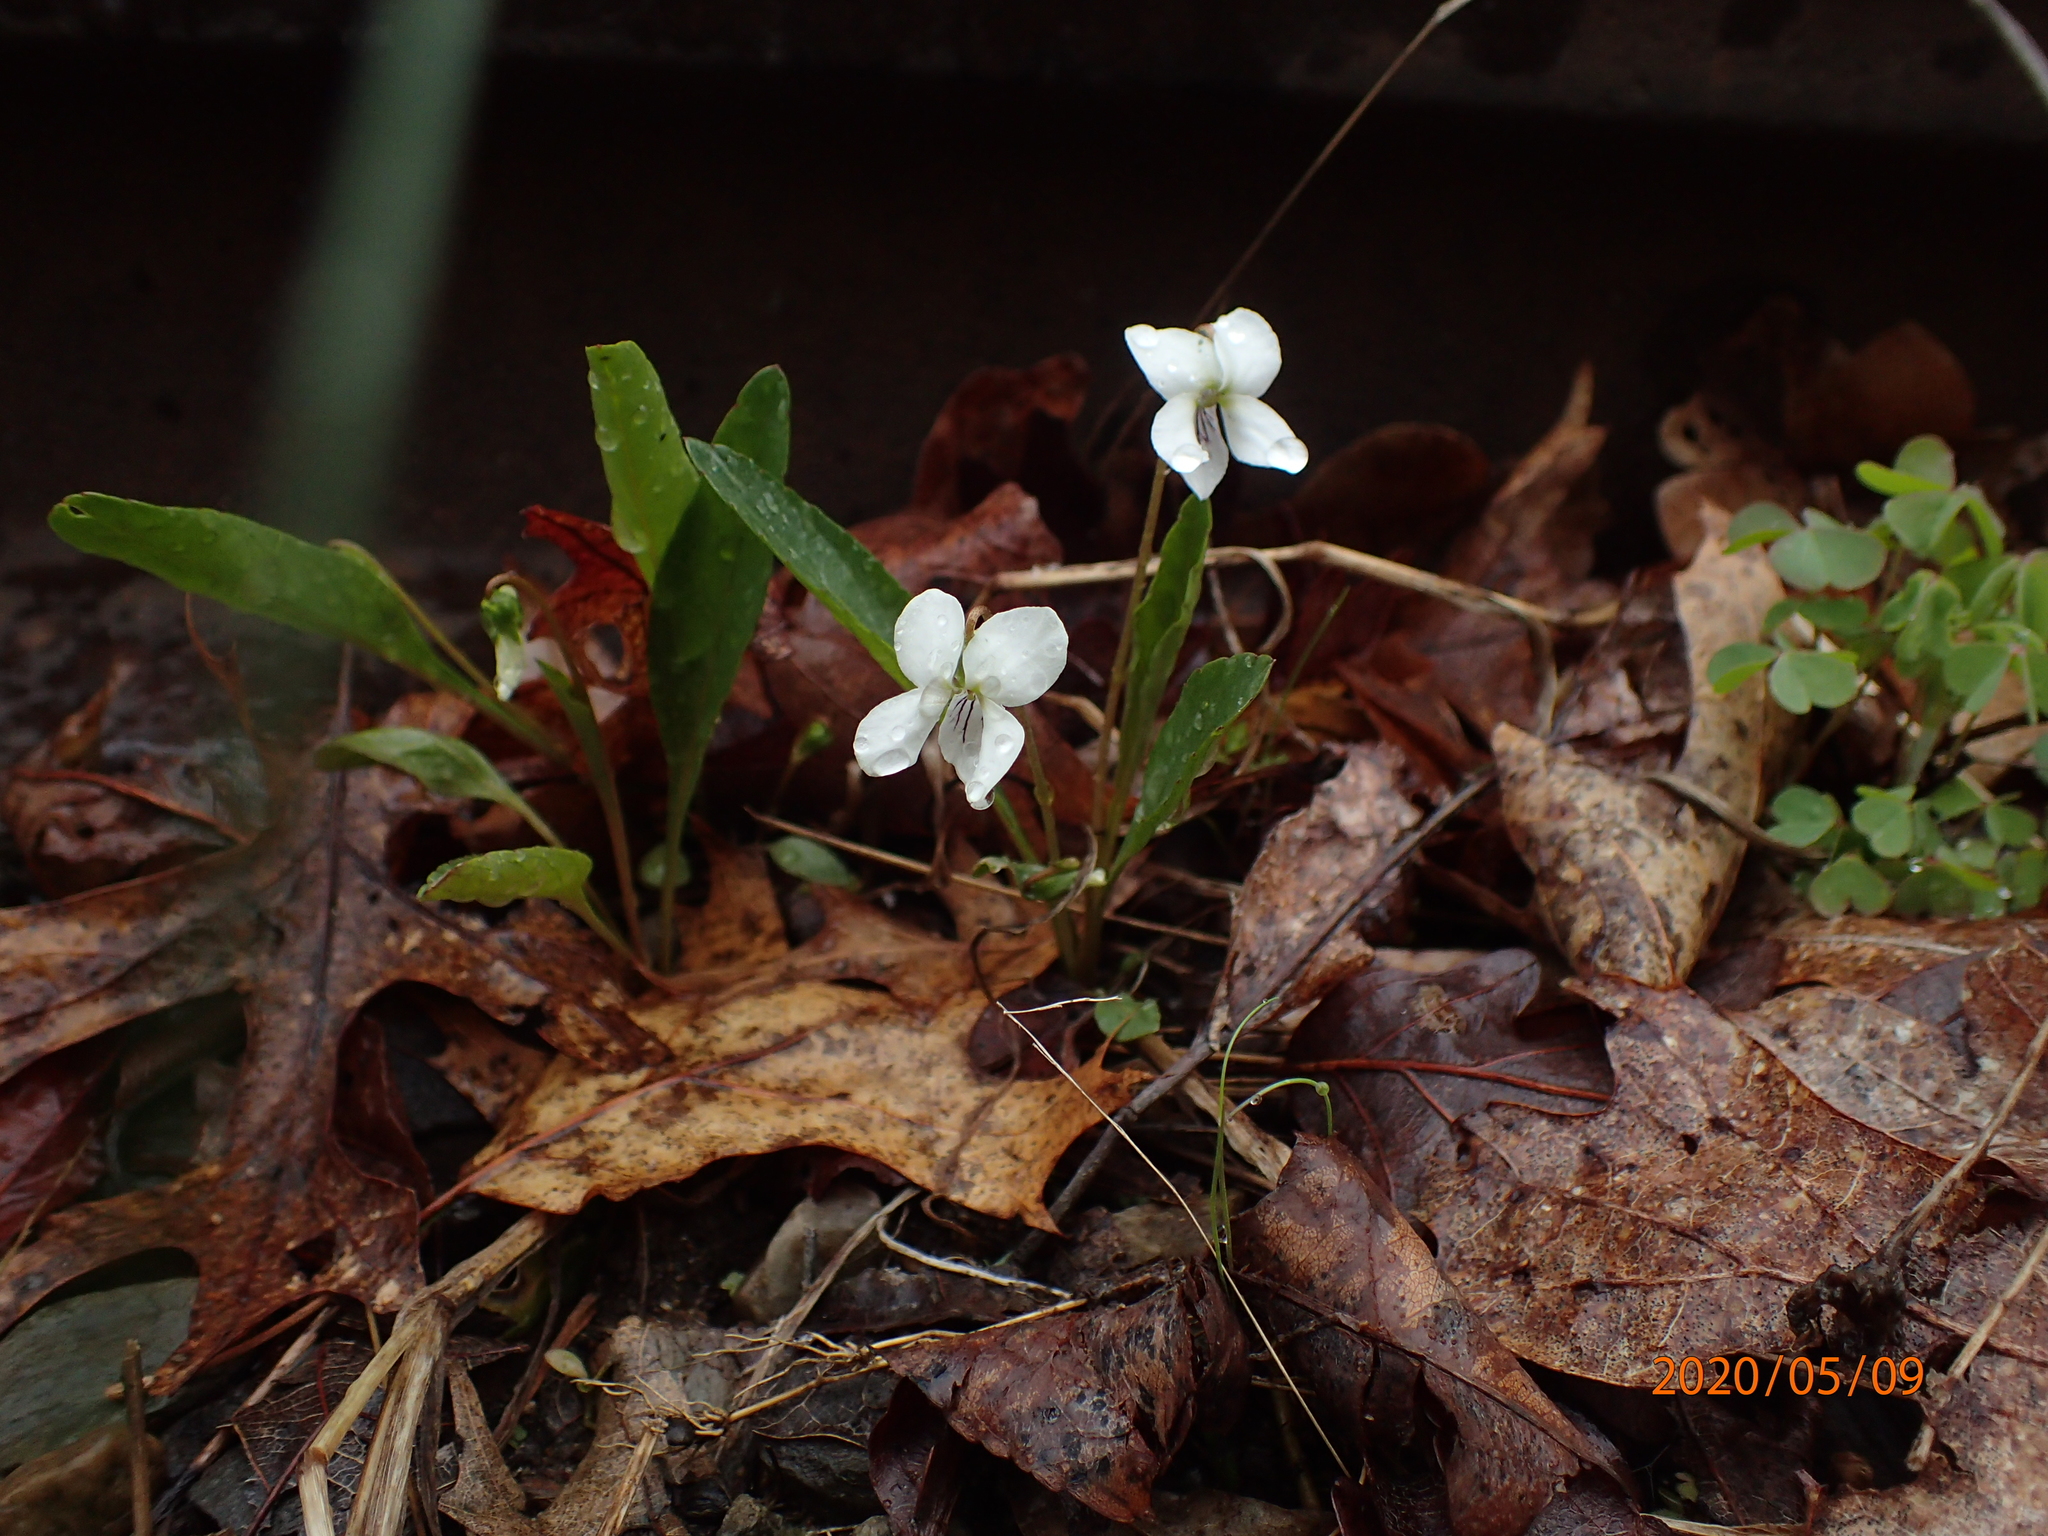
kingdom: Plantae
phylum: Tracheophyta
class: Magnoliopsida
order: Malpighiales
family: Violaceae
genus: Viola
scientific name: Viola lanceolata
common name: Bog white violet
